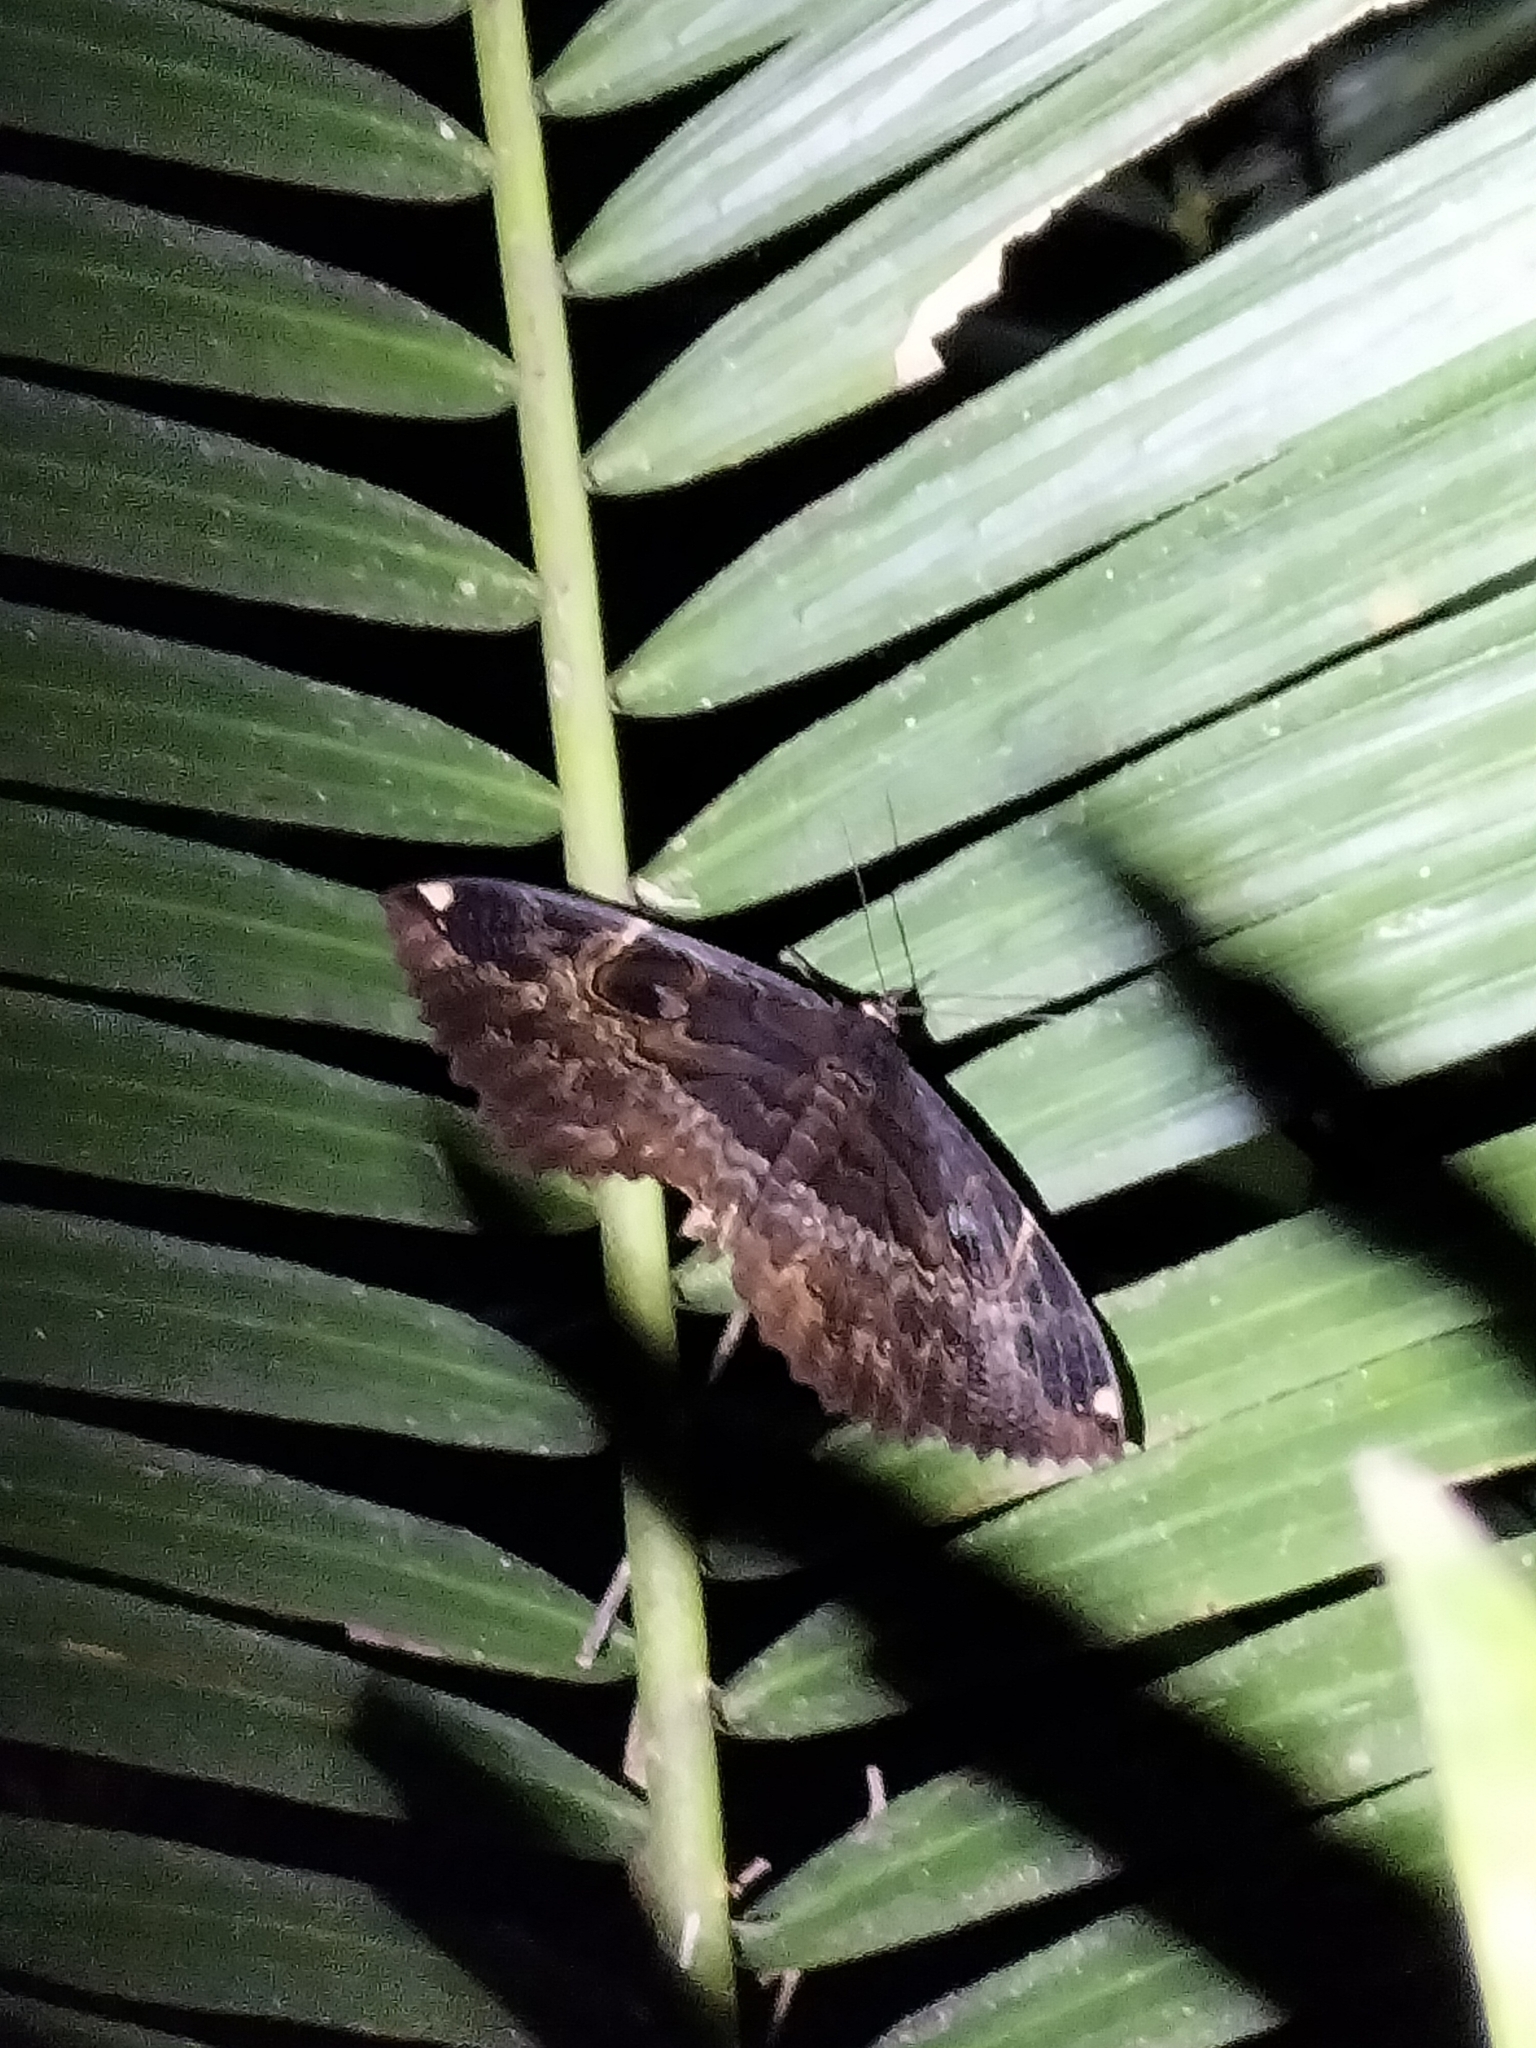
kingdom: Animalia
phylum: Arthropoda
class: Insecta
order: Lepidoptera
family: Erebidae
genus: Erebus
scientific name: Erebus crepuscularis
